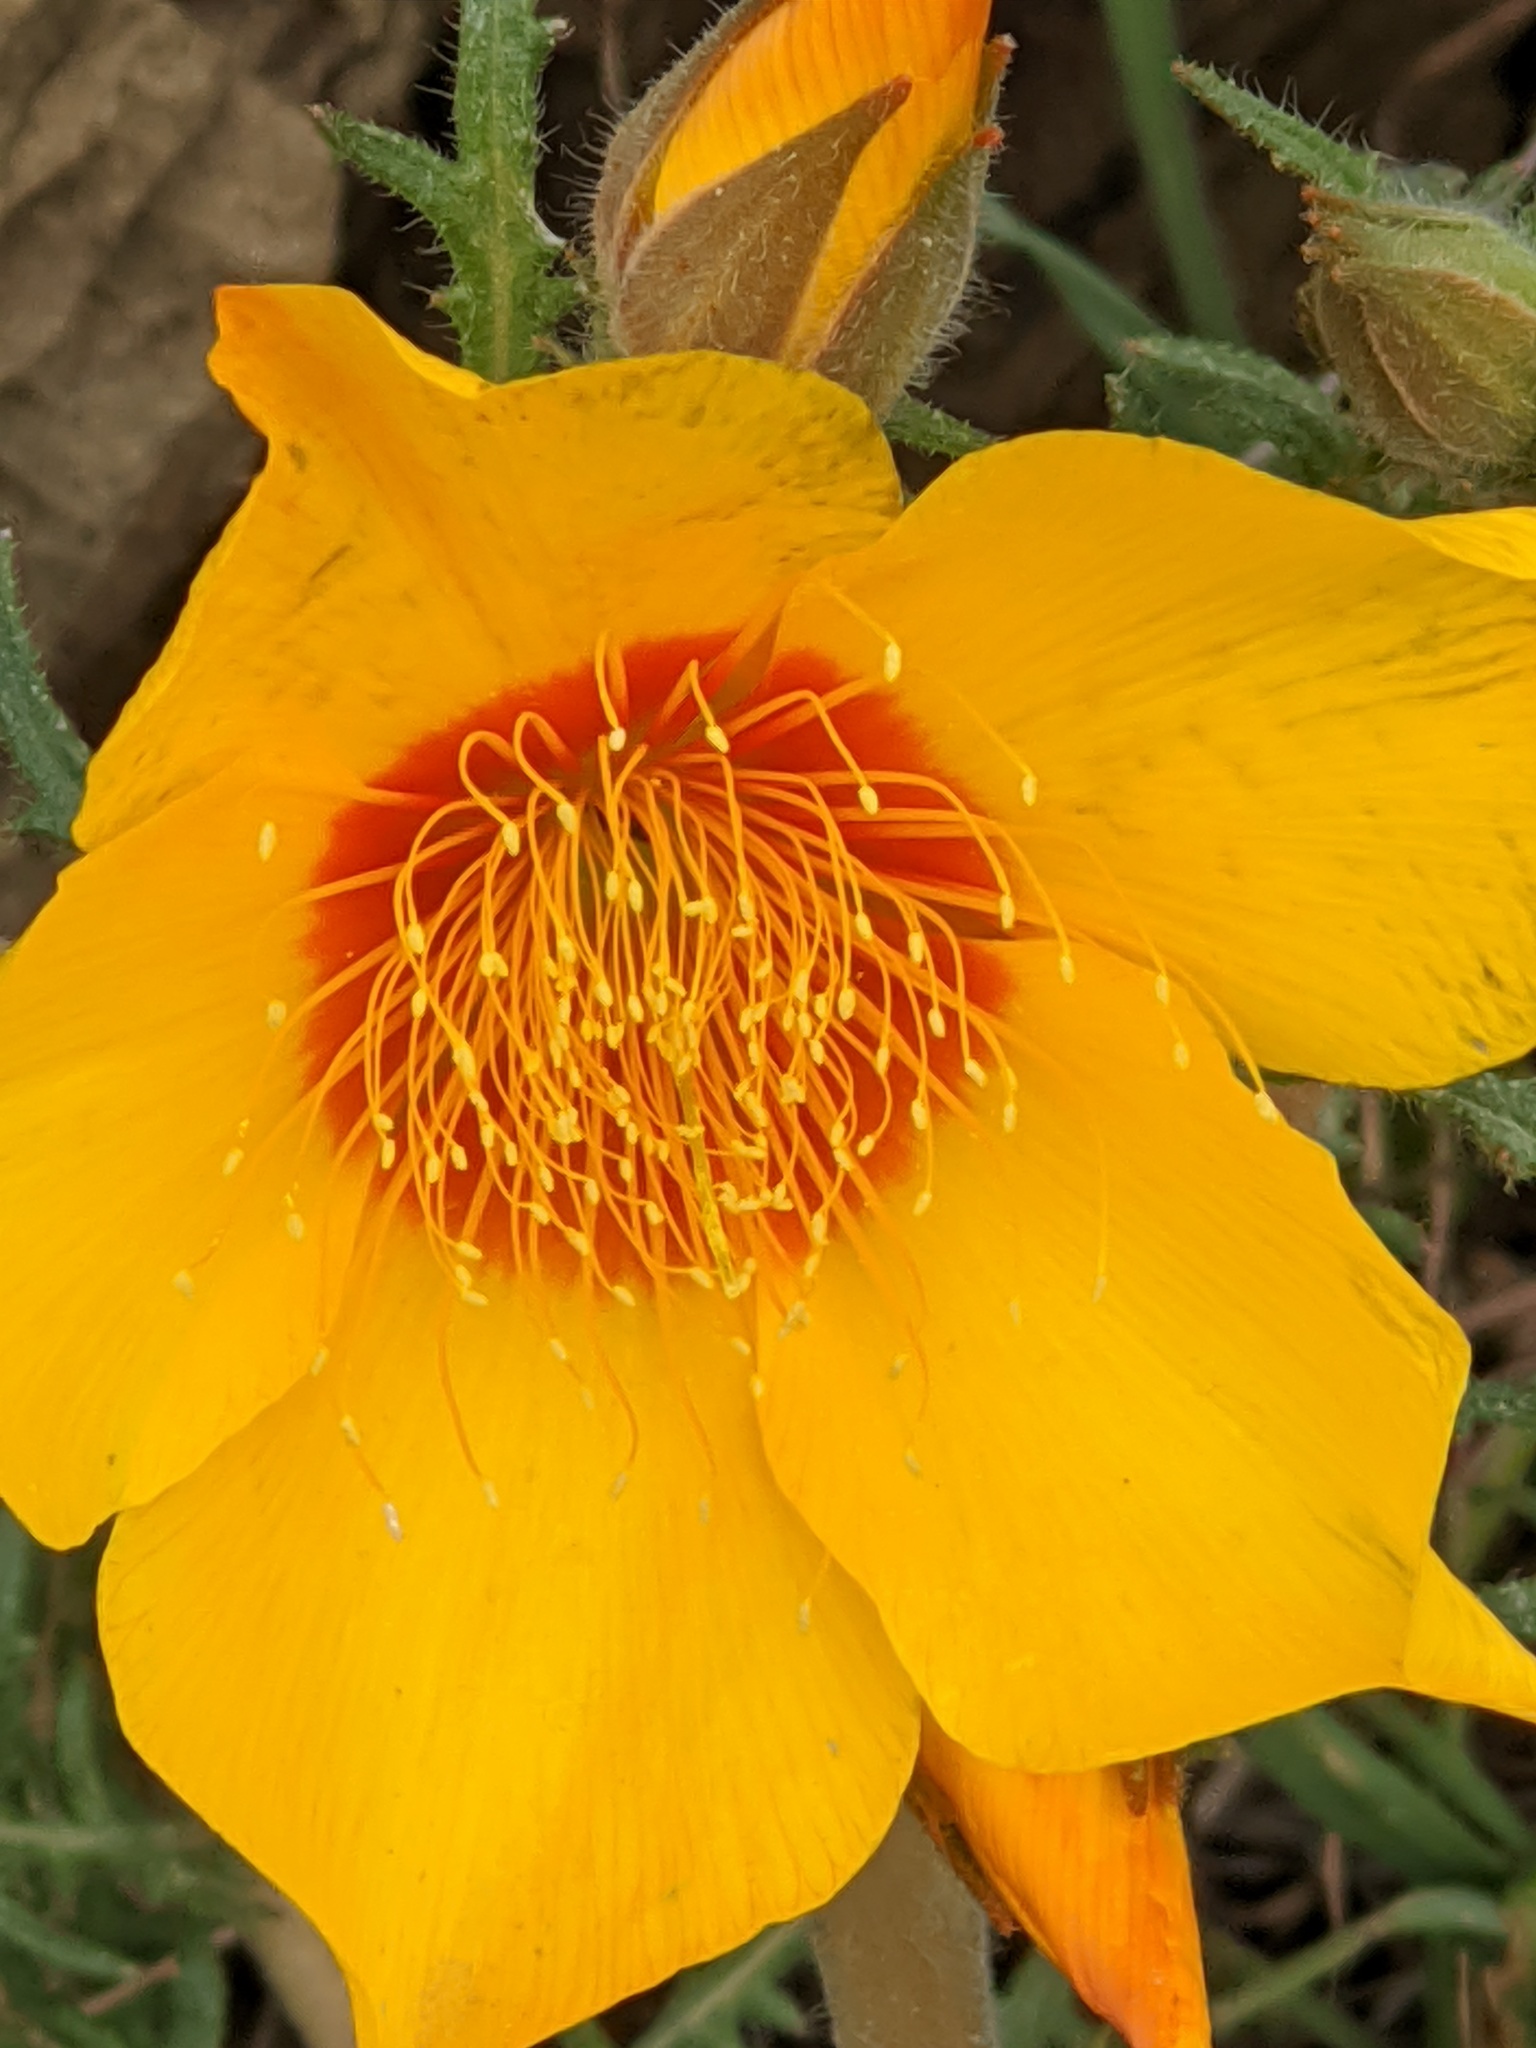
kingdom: Plantae
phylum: Tracheophyta
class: Magnoliopsida
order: Cornales
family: Loasaceae
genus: Mentzelia
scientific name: Mentzelia lindleyi
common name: Golden bartonia
